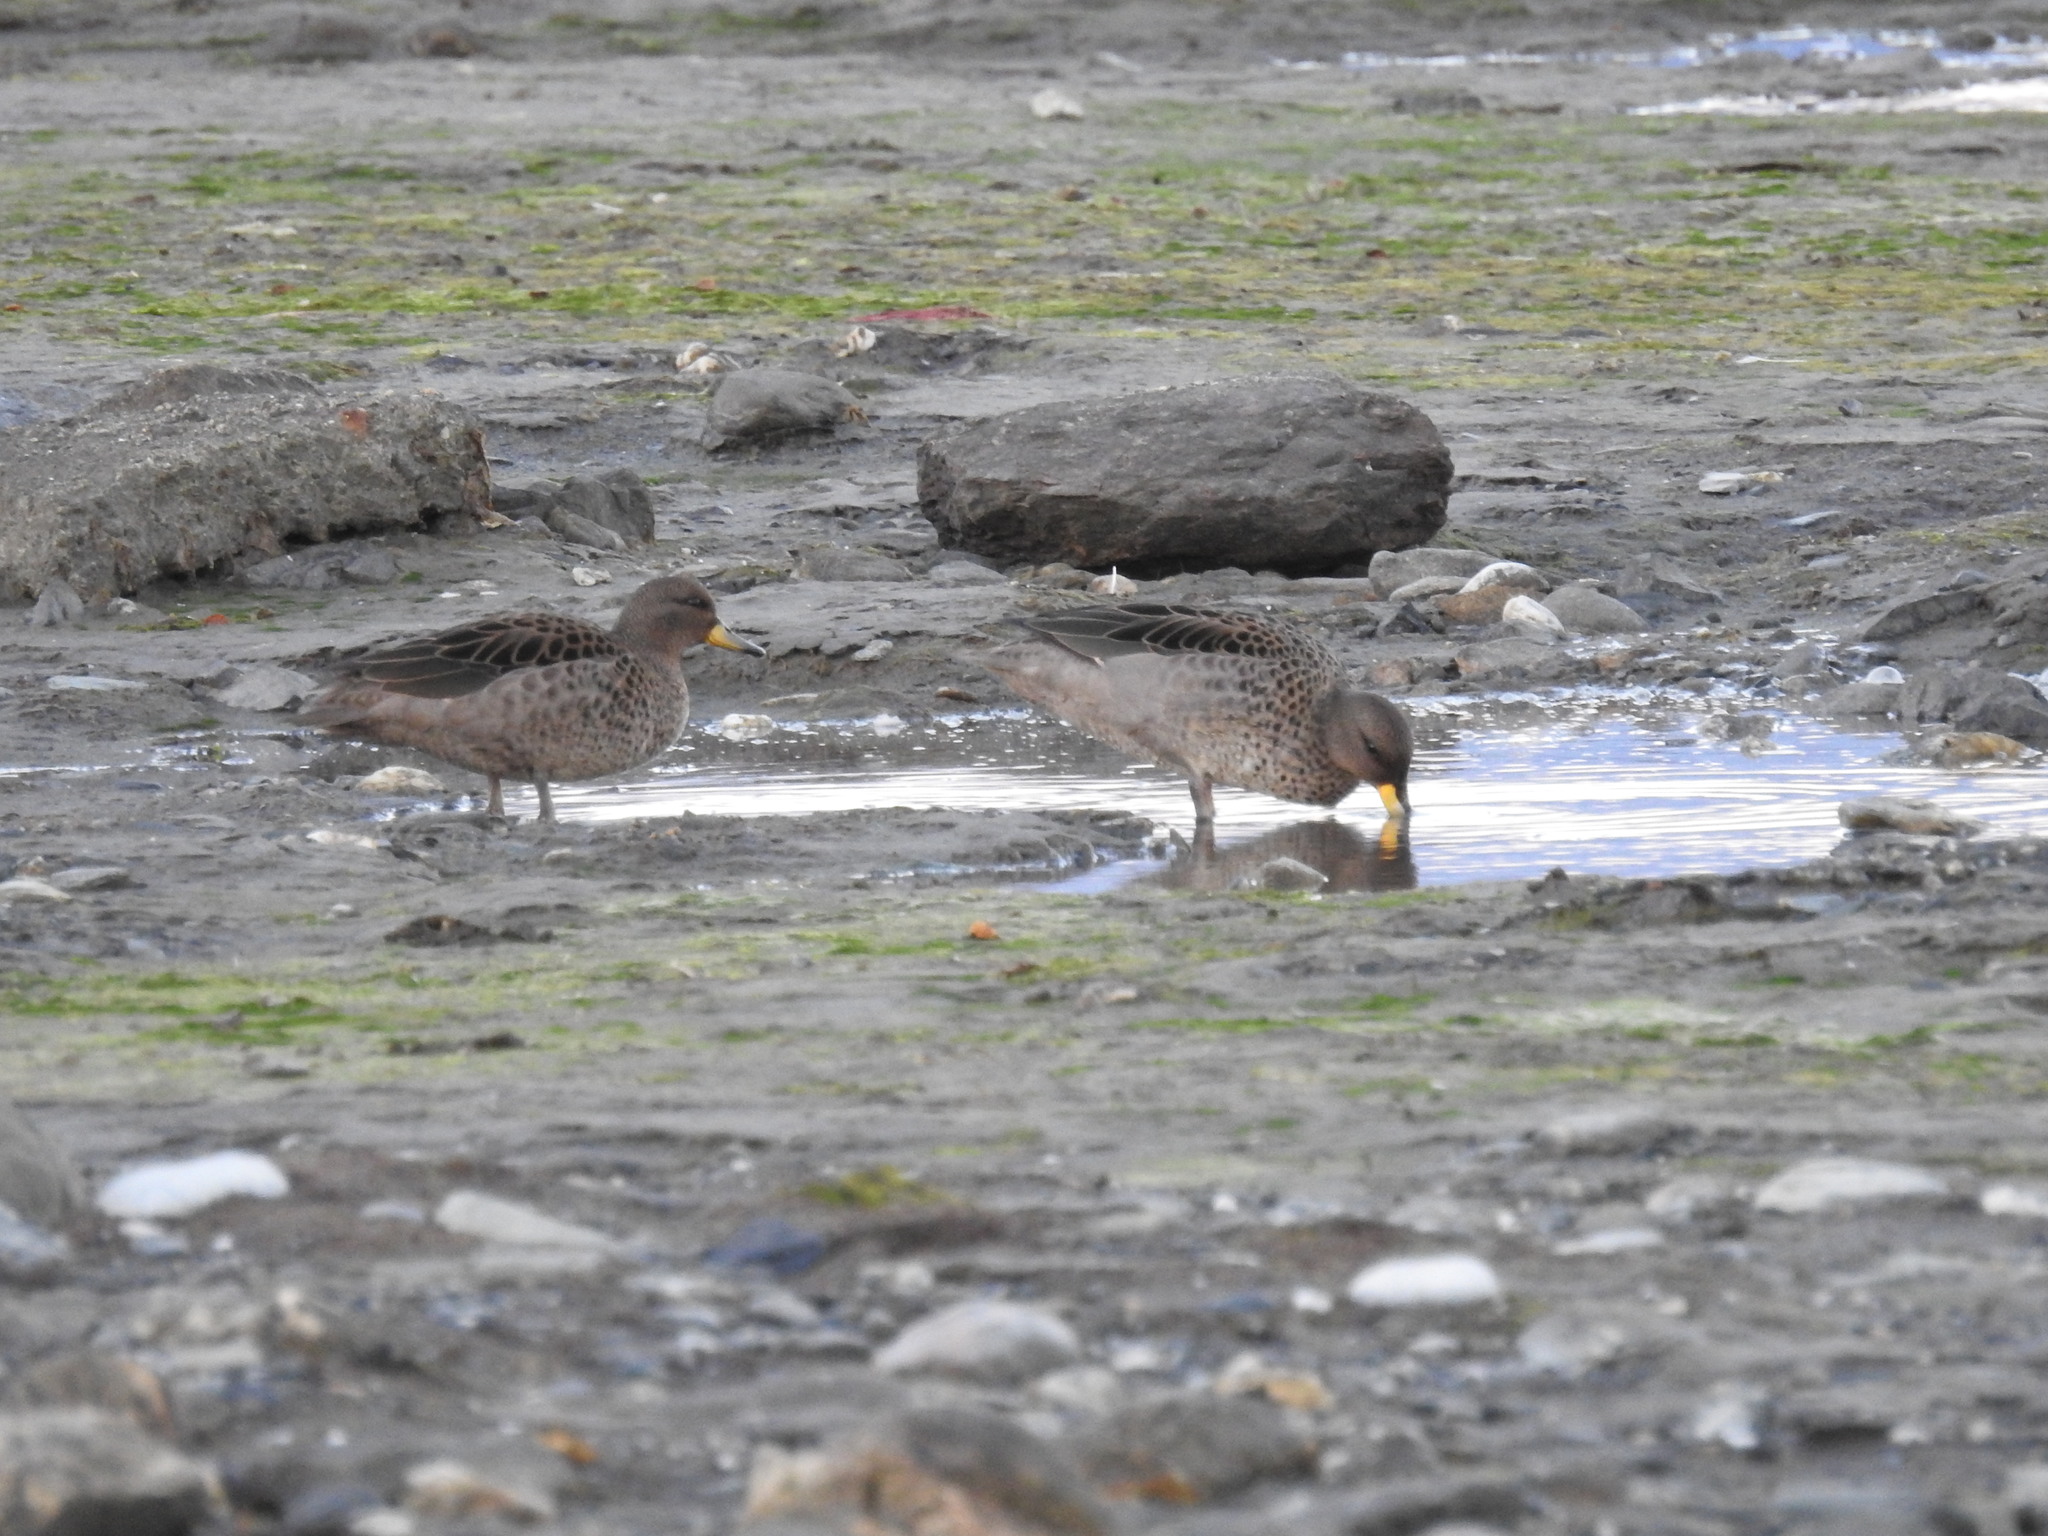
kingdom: Animalia
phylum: Chordata
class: Aves
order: Anseriformes
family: Anatidae
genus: Anas
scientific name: Anas flavirostris
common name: Yellow-billed teal
